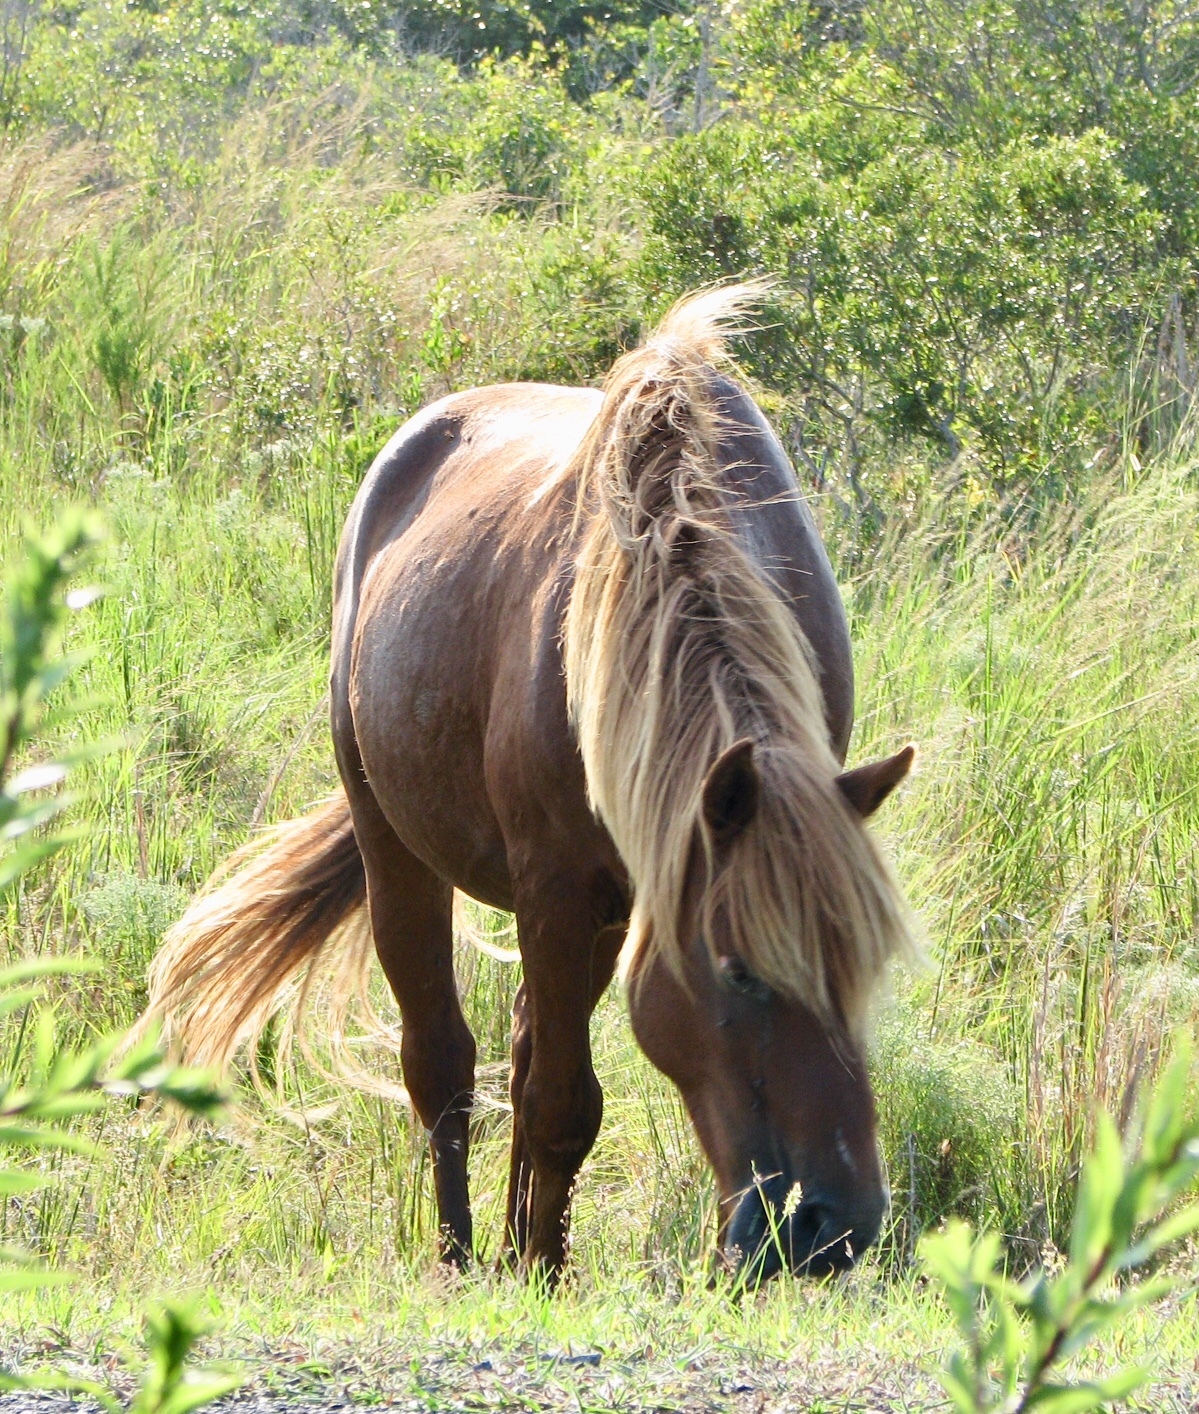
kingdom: Animalia
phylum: Chordata
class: Mammalia
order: Perissodactyla
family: Equidae
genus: Equus
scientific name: Equus caballus
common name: Horse
